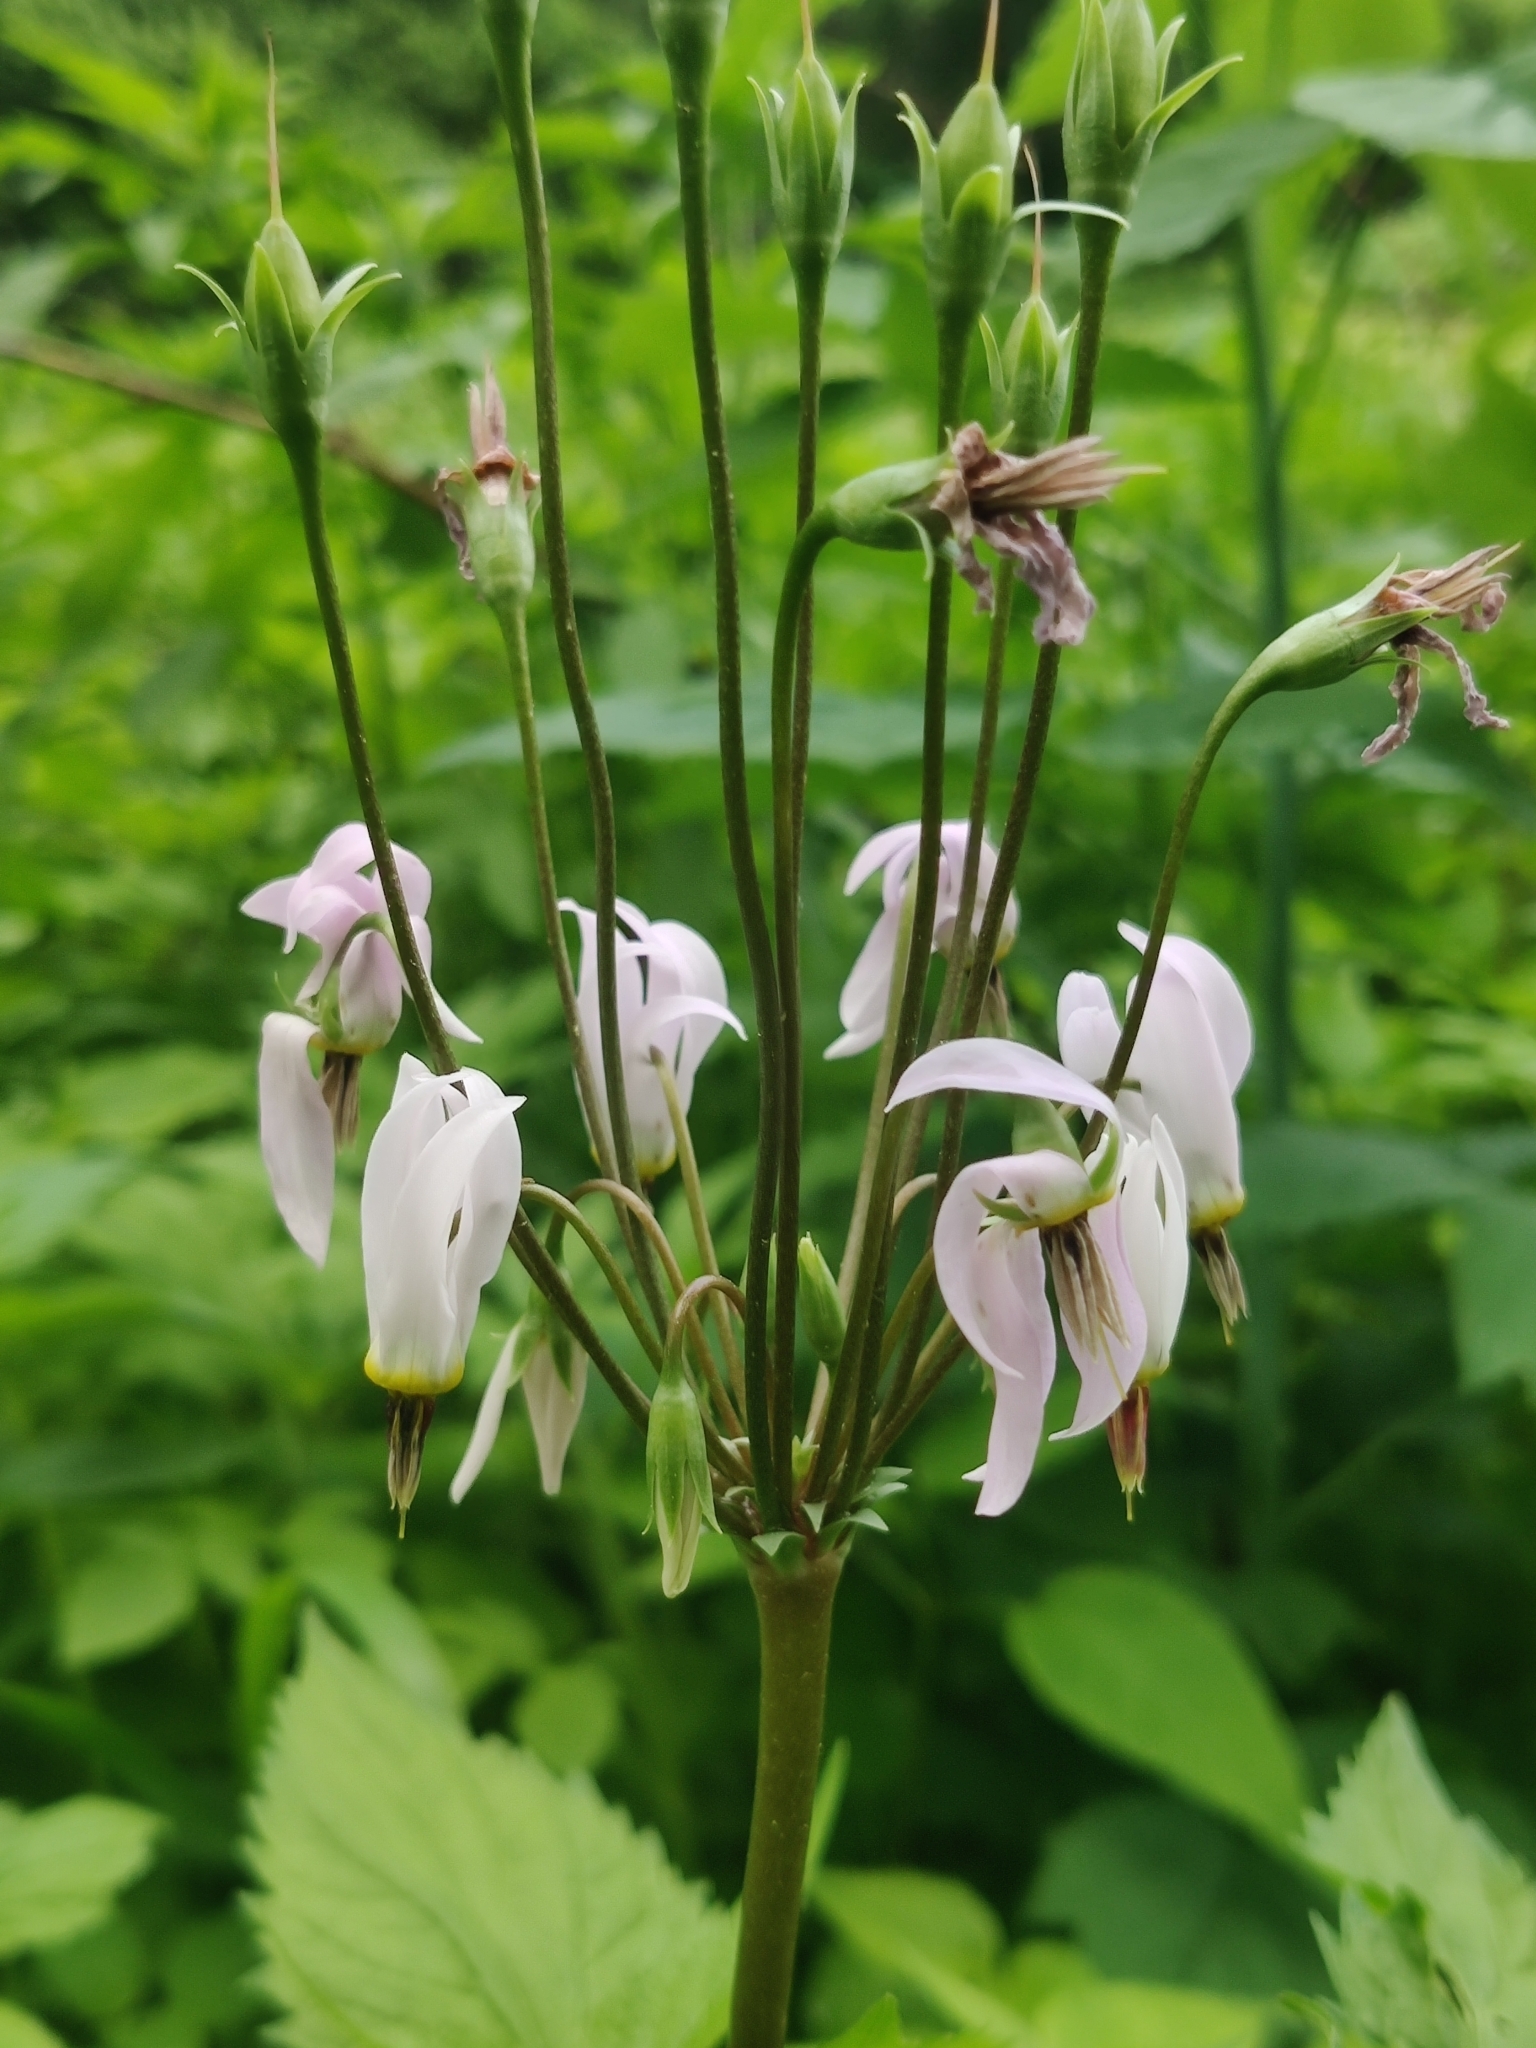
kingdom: Plantae
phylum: Tracheophyta
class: Magnoliopsida
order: Ericales
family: Primulaceae
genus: Dodecatheon
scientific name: Dodecatheon meadia
